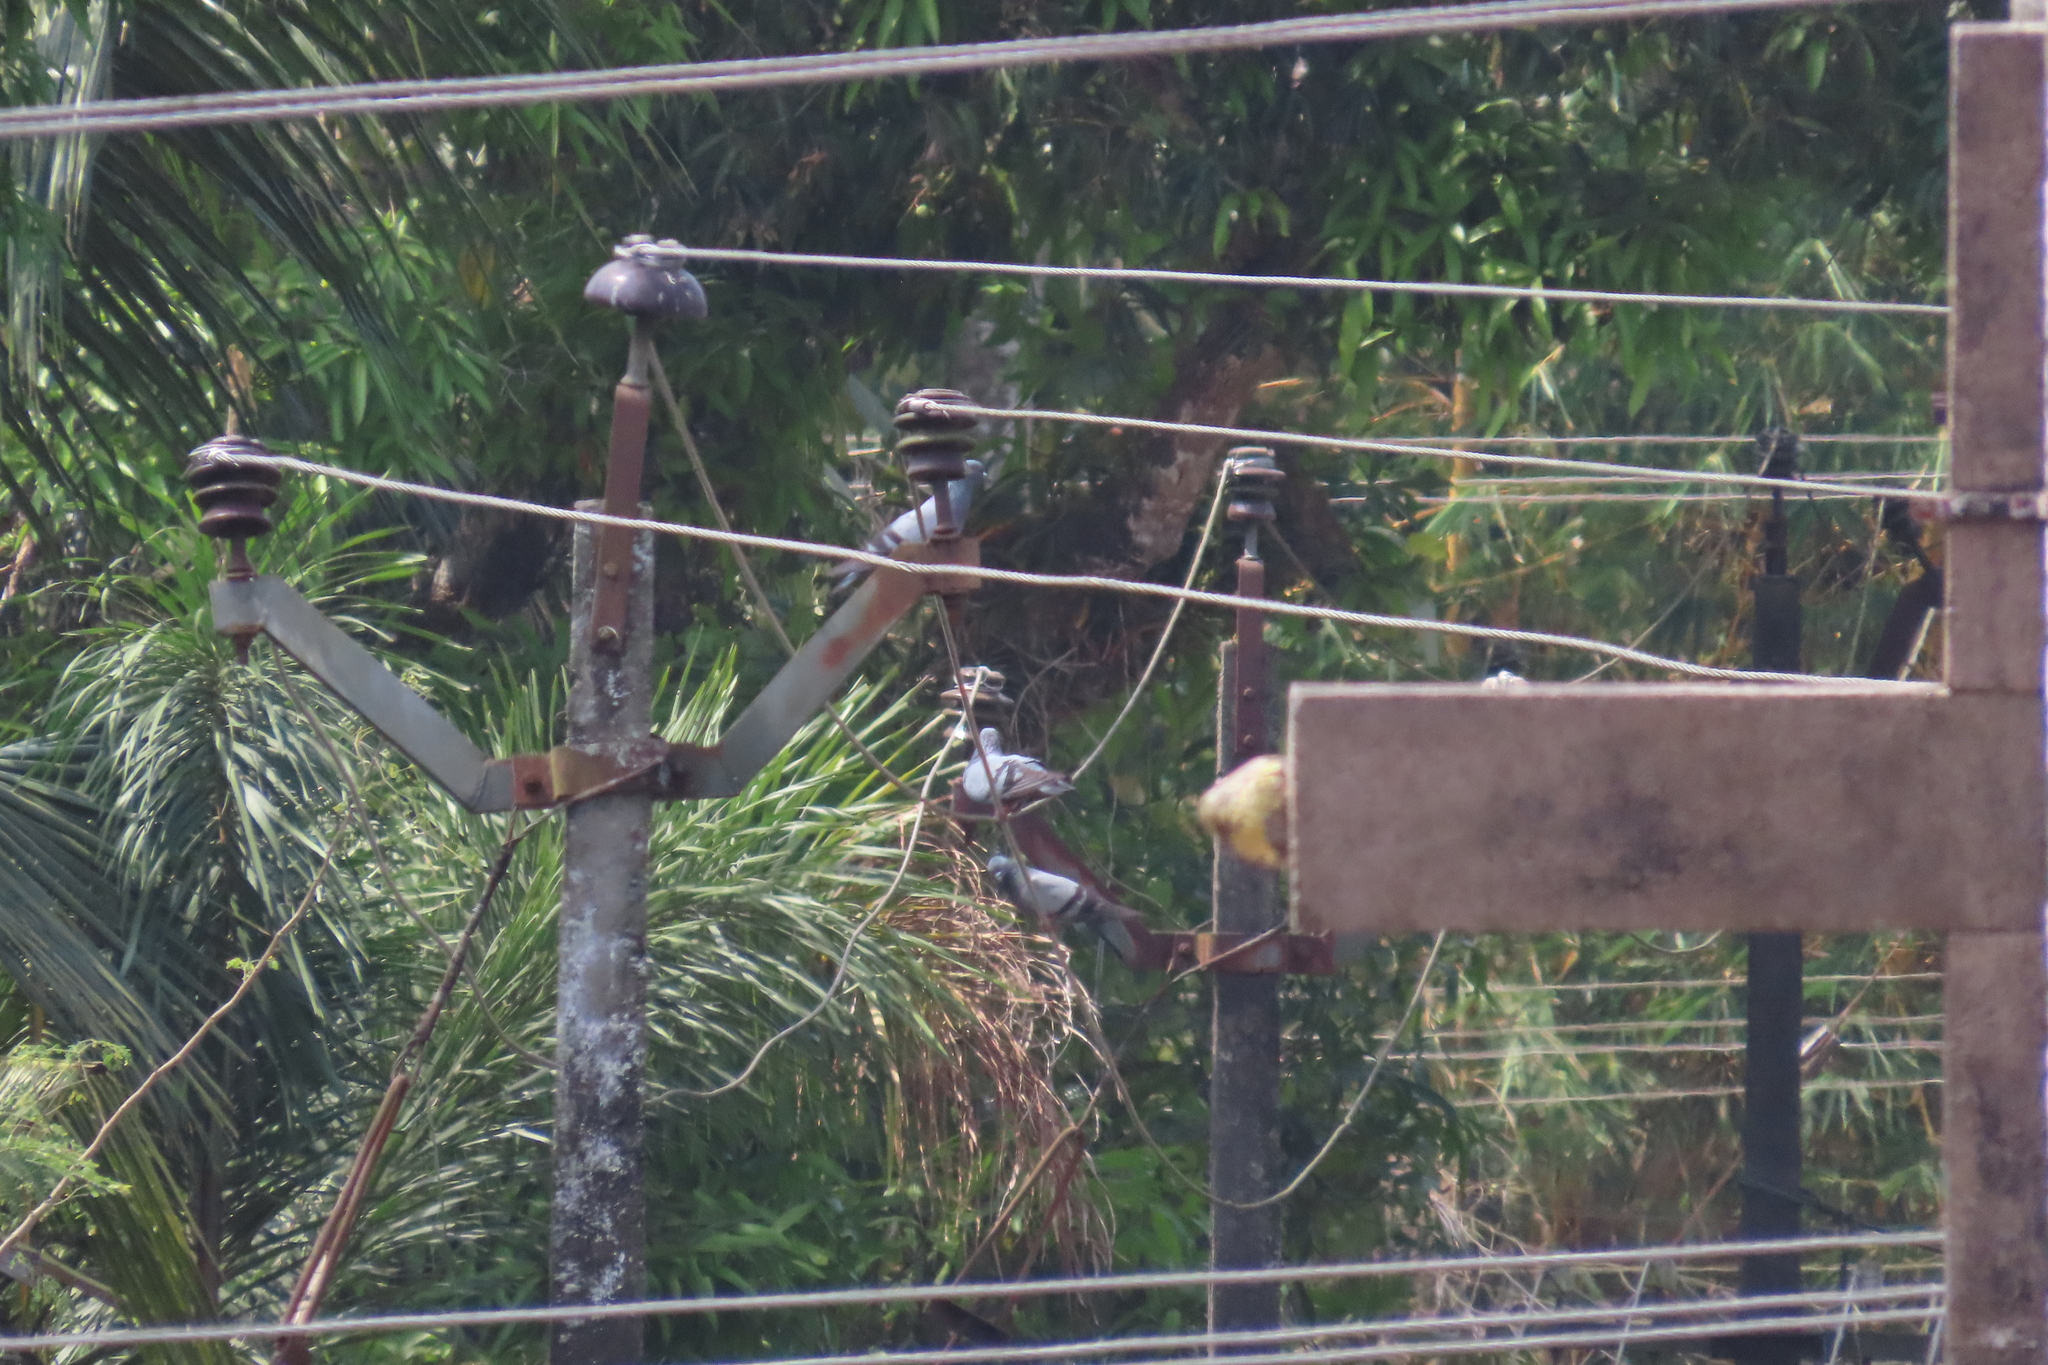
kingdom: Animalia
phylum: Chordata
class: Aves
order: Columbiformes
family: Columbidae
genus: Columba
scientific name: Columba livia
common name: Rock pigeon
